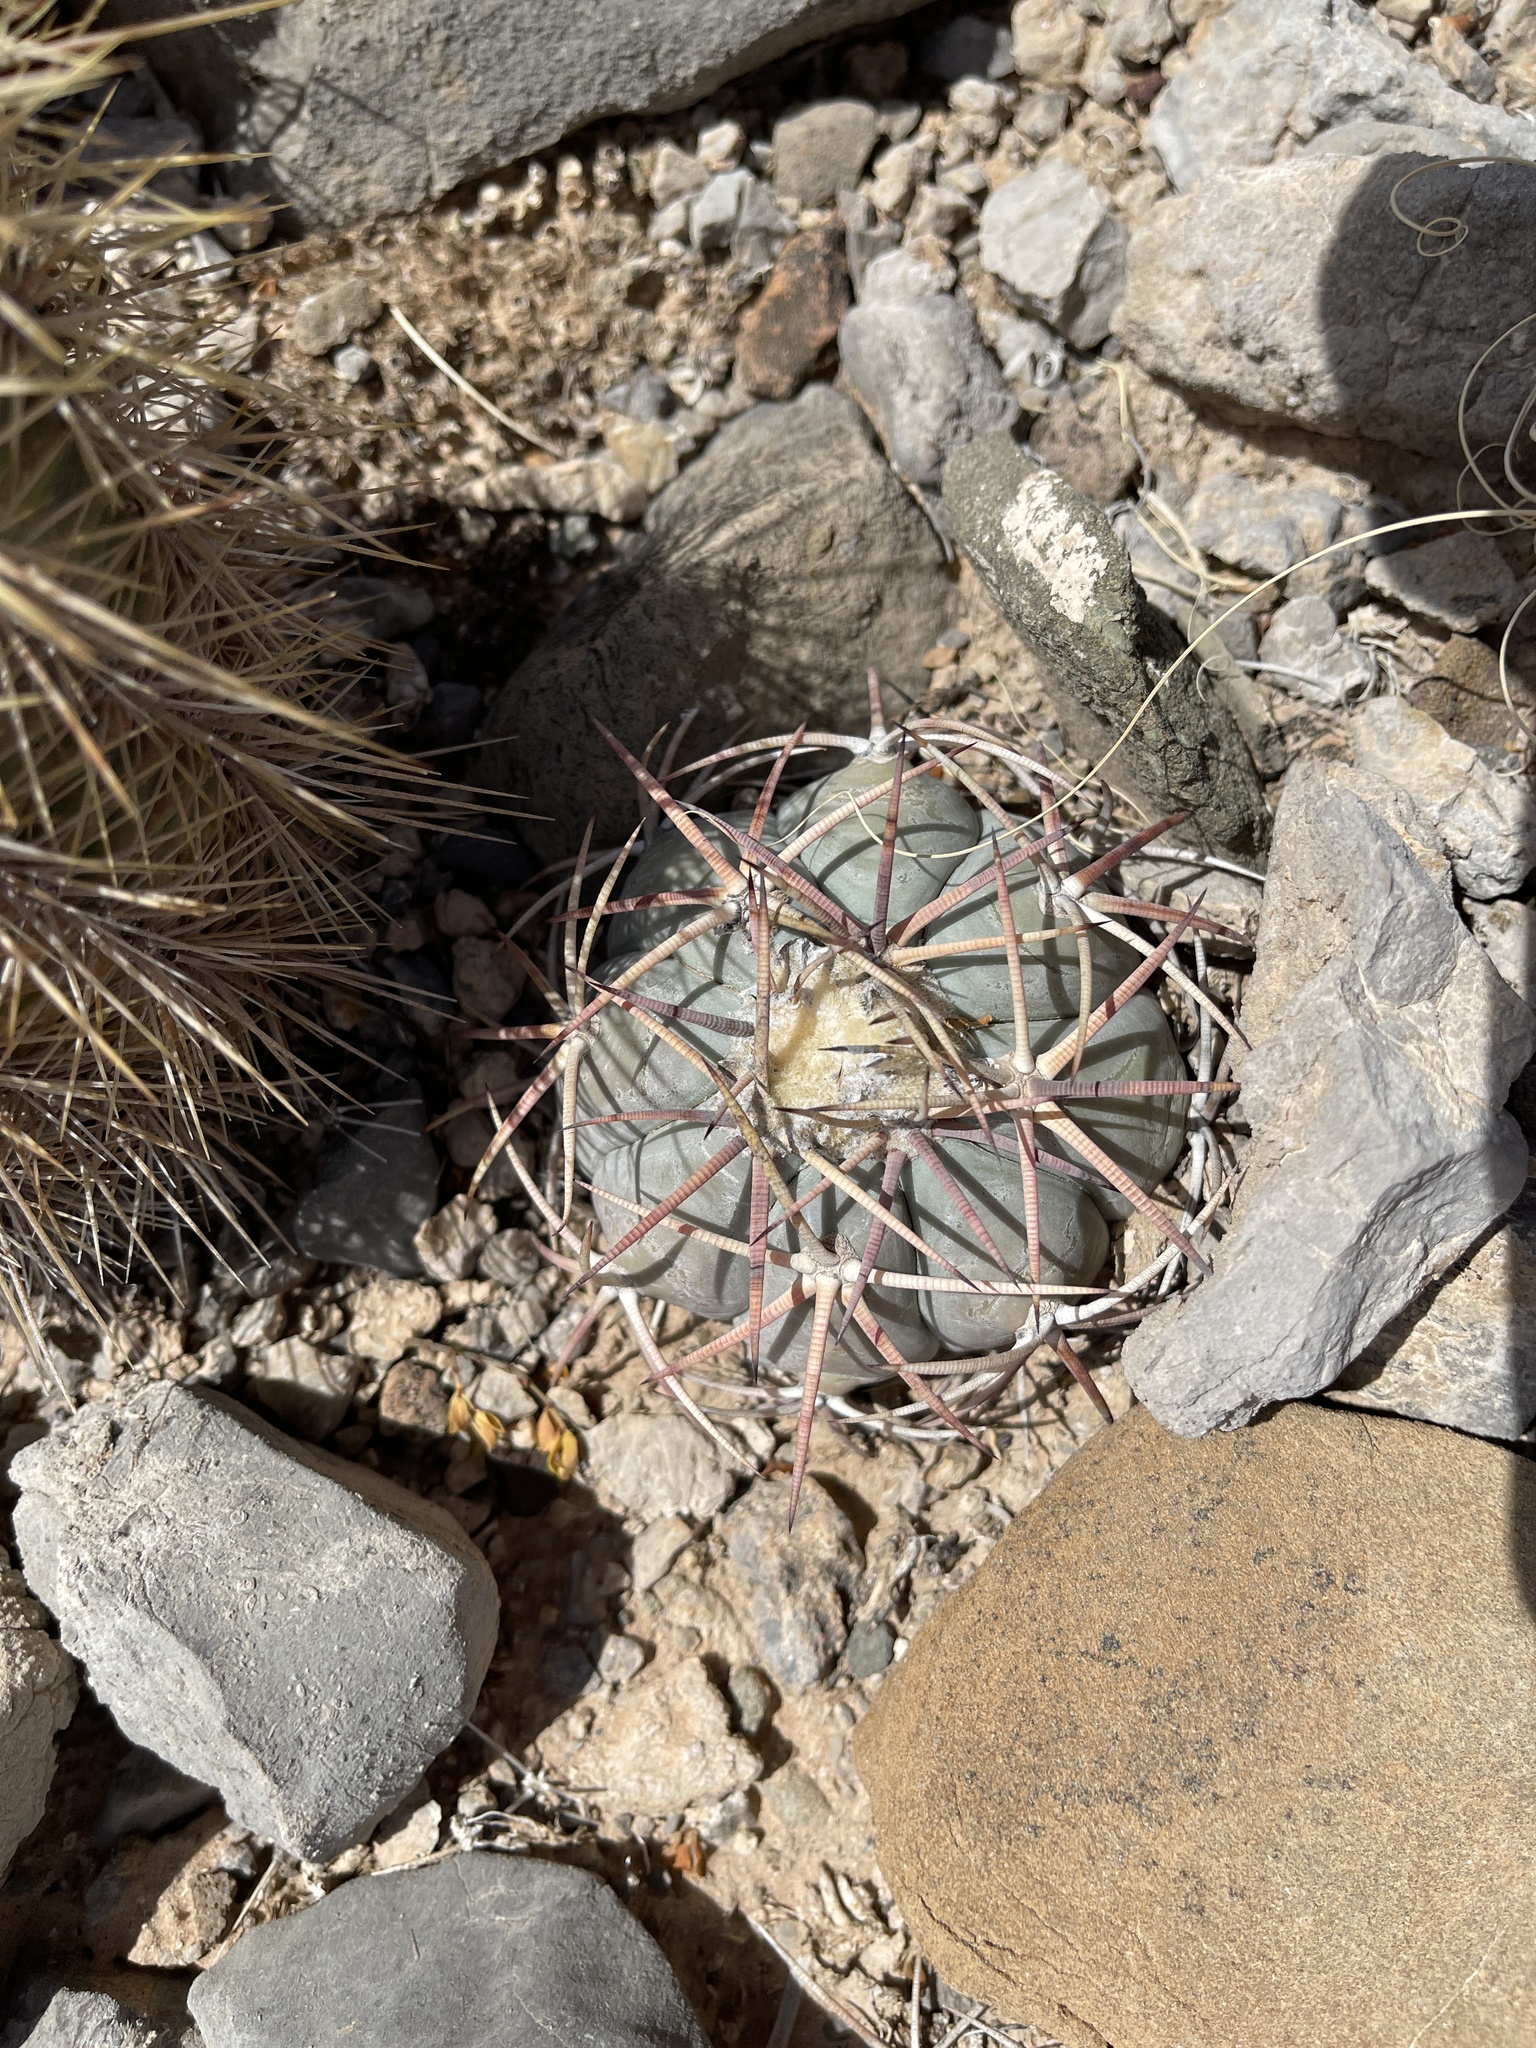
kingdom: Plantae
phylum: Tracheophyta
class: Magnoliopsida
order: Caryophyllales
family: Cactaceae
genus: Echinocactus
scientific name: Echinocactus horizonthalonius
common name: Devilshead
